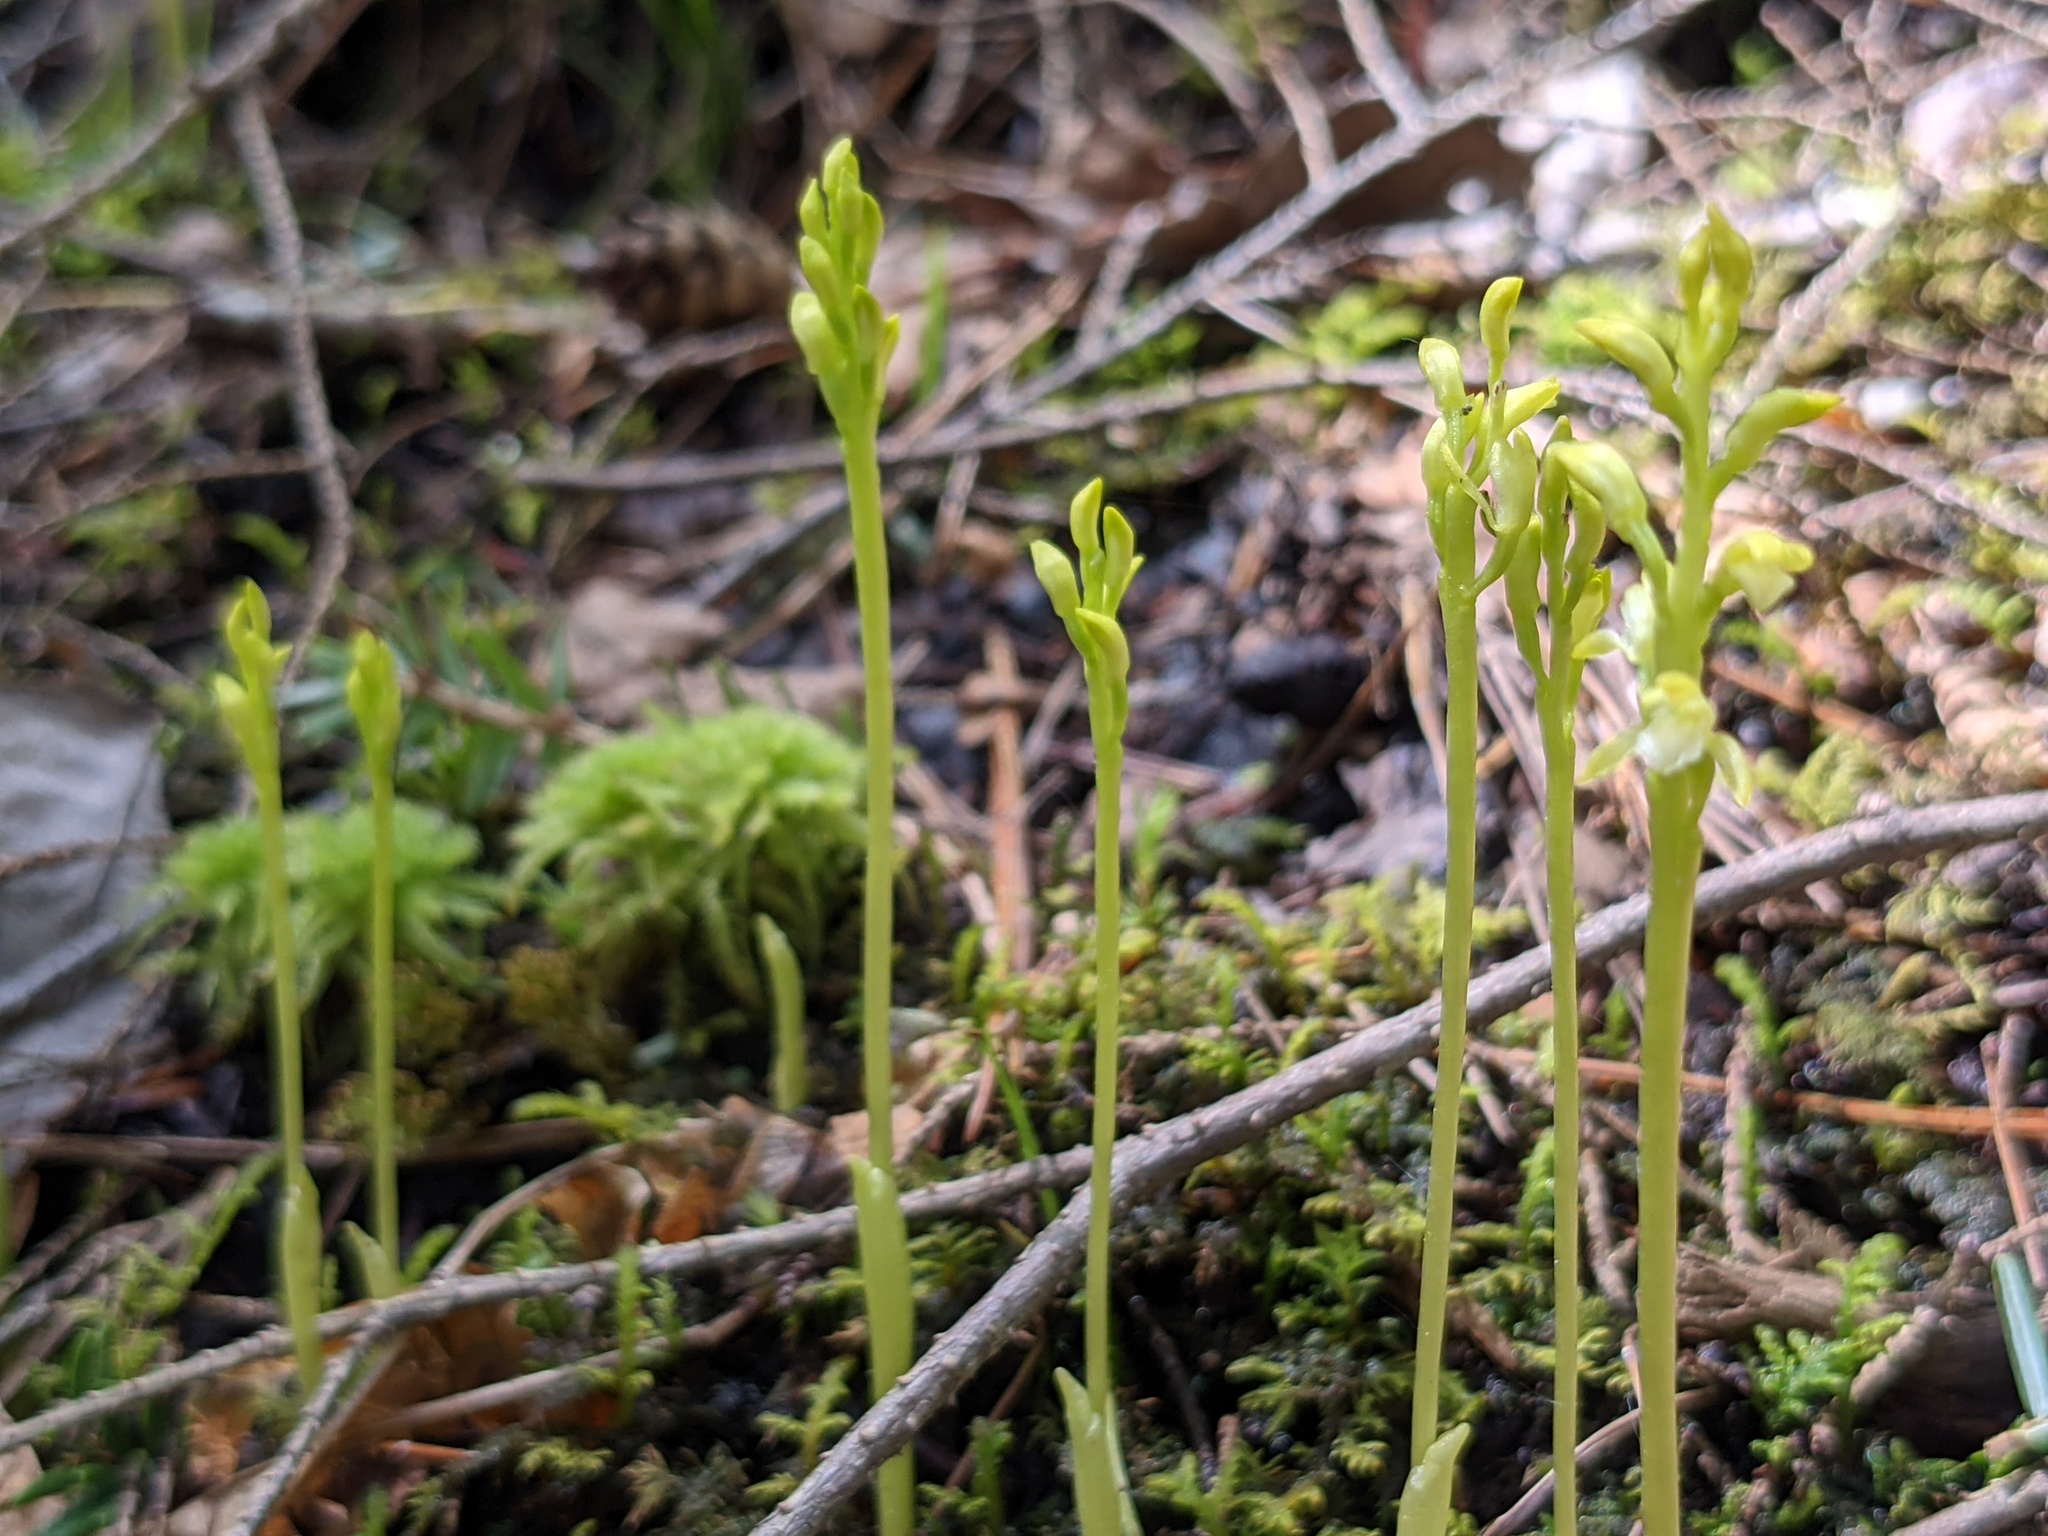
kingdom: Plantae
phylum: Tracheophyta
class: Liliopsida
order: Asparagales
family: Orchidaceae
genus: Corallorhiza
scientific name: Corallorhiza trifida
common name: Yellow coralroot
